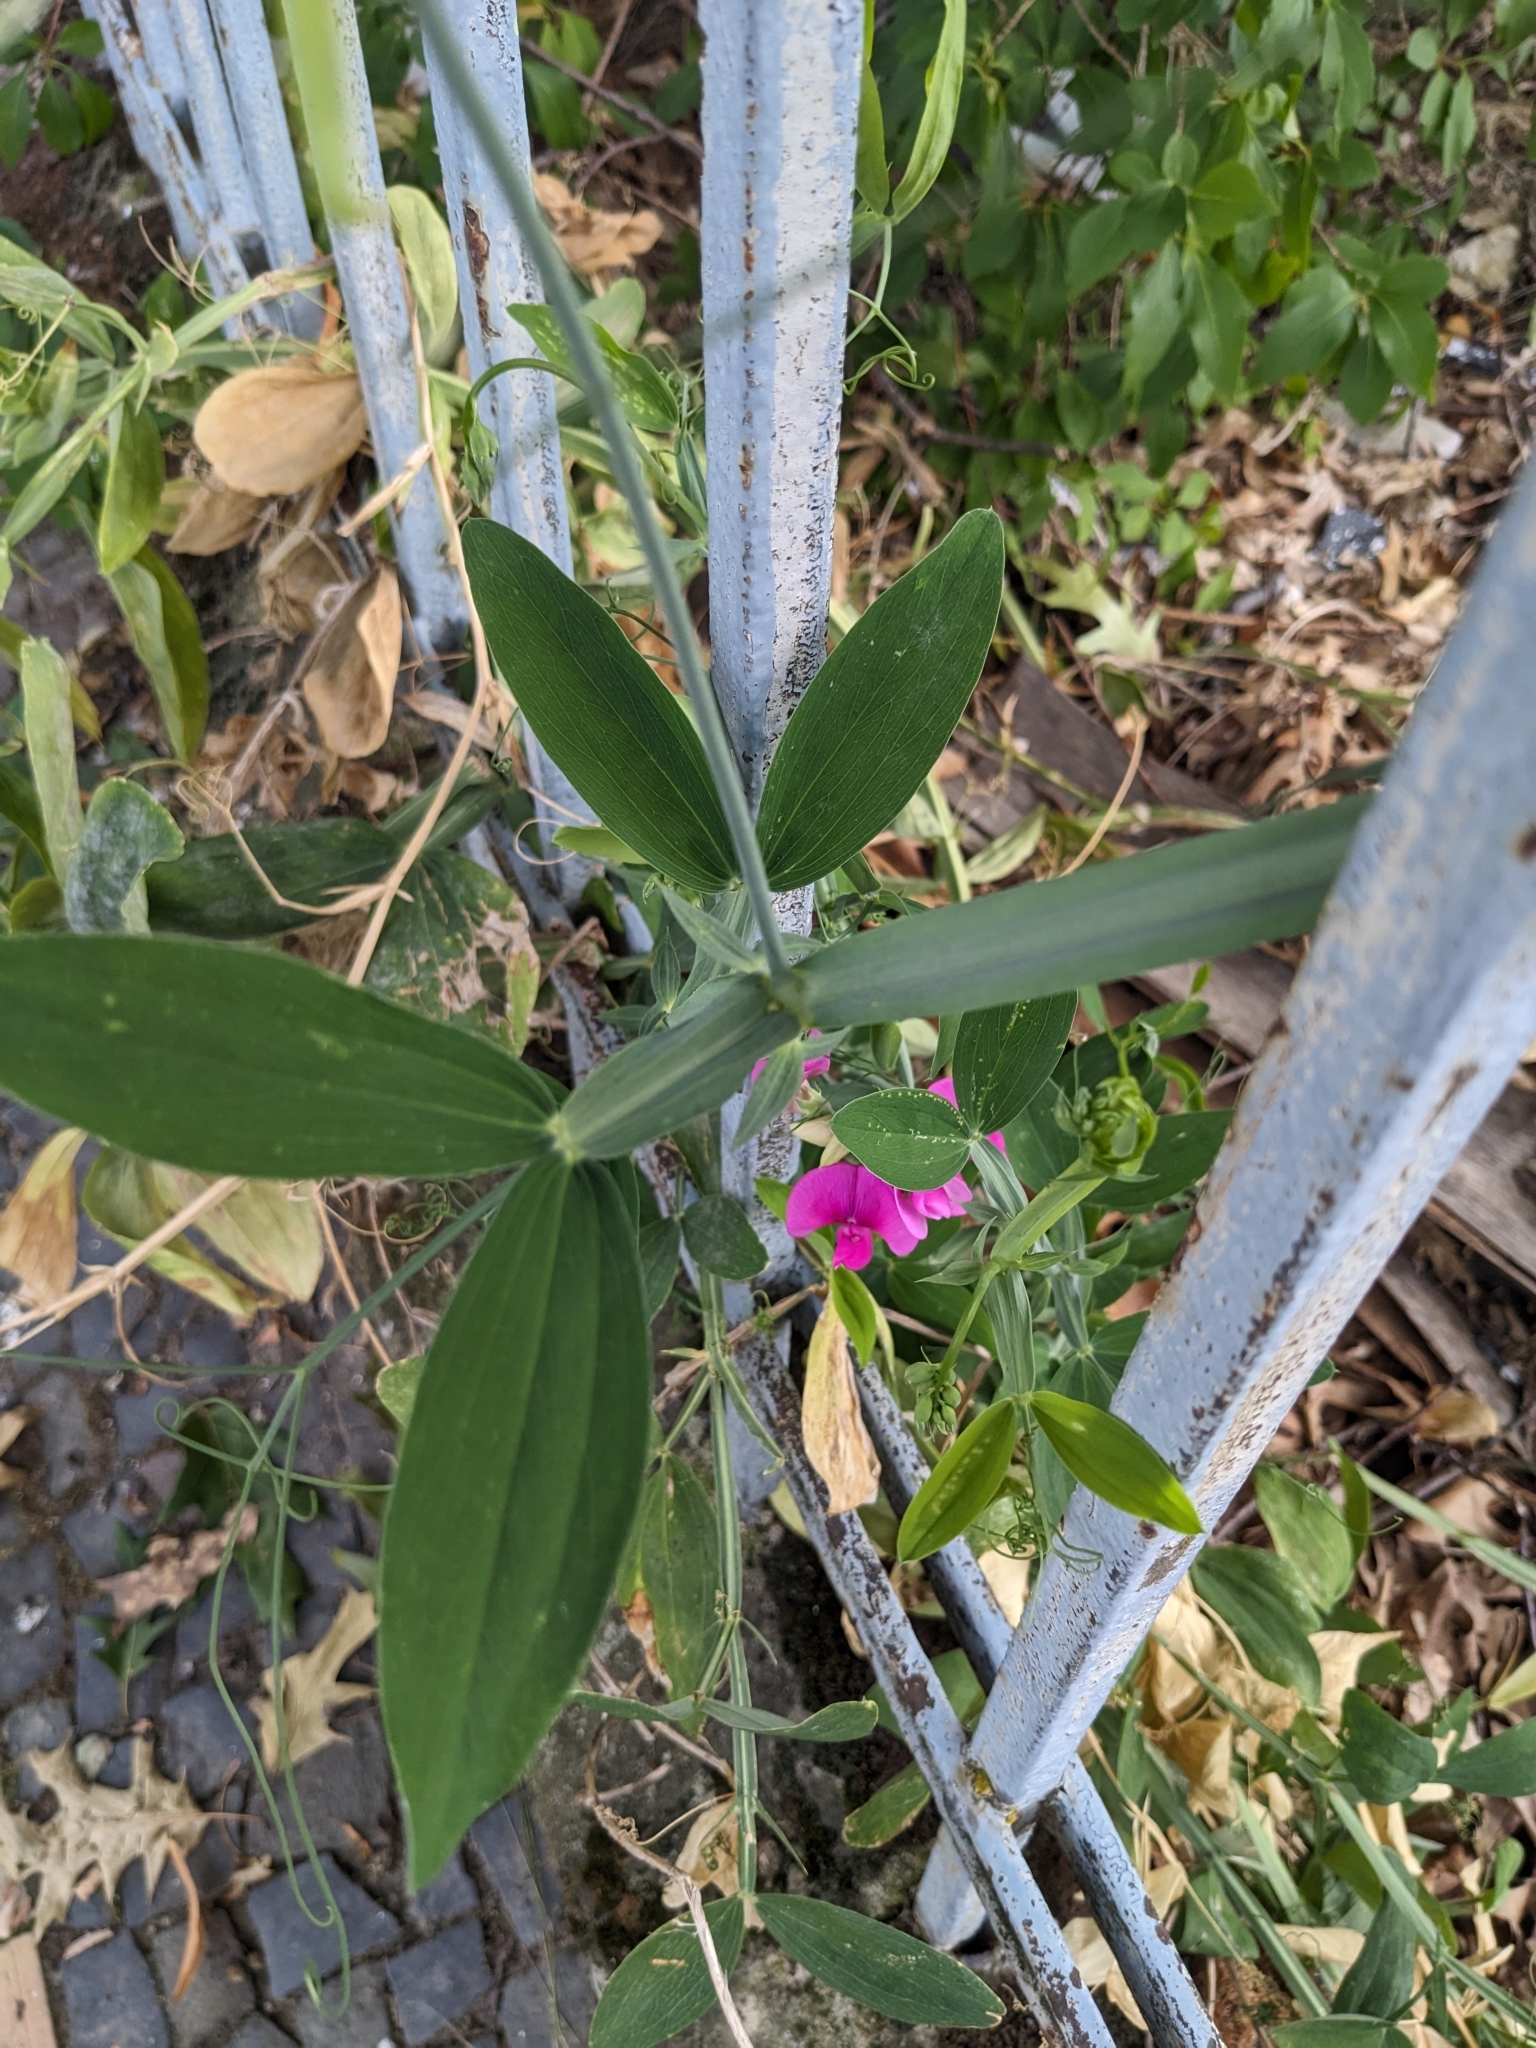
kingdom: Plantae
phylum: Tracheophyta
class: Magnoliopsida
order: Fabales
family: Fabaceae
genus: Lathyrus
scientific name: Lathyrus latifolius
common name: Perennial pea
